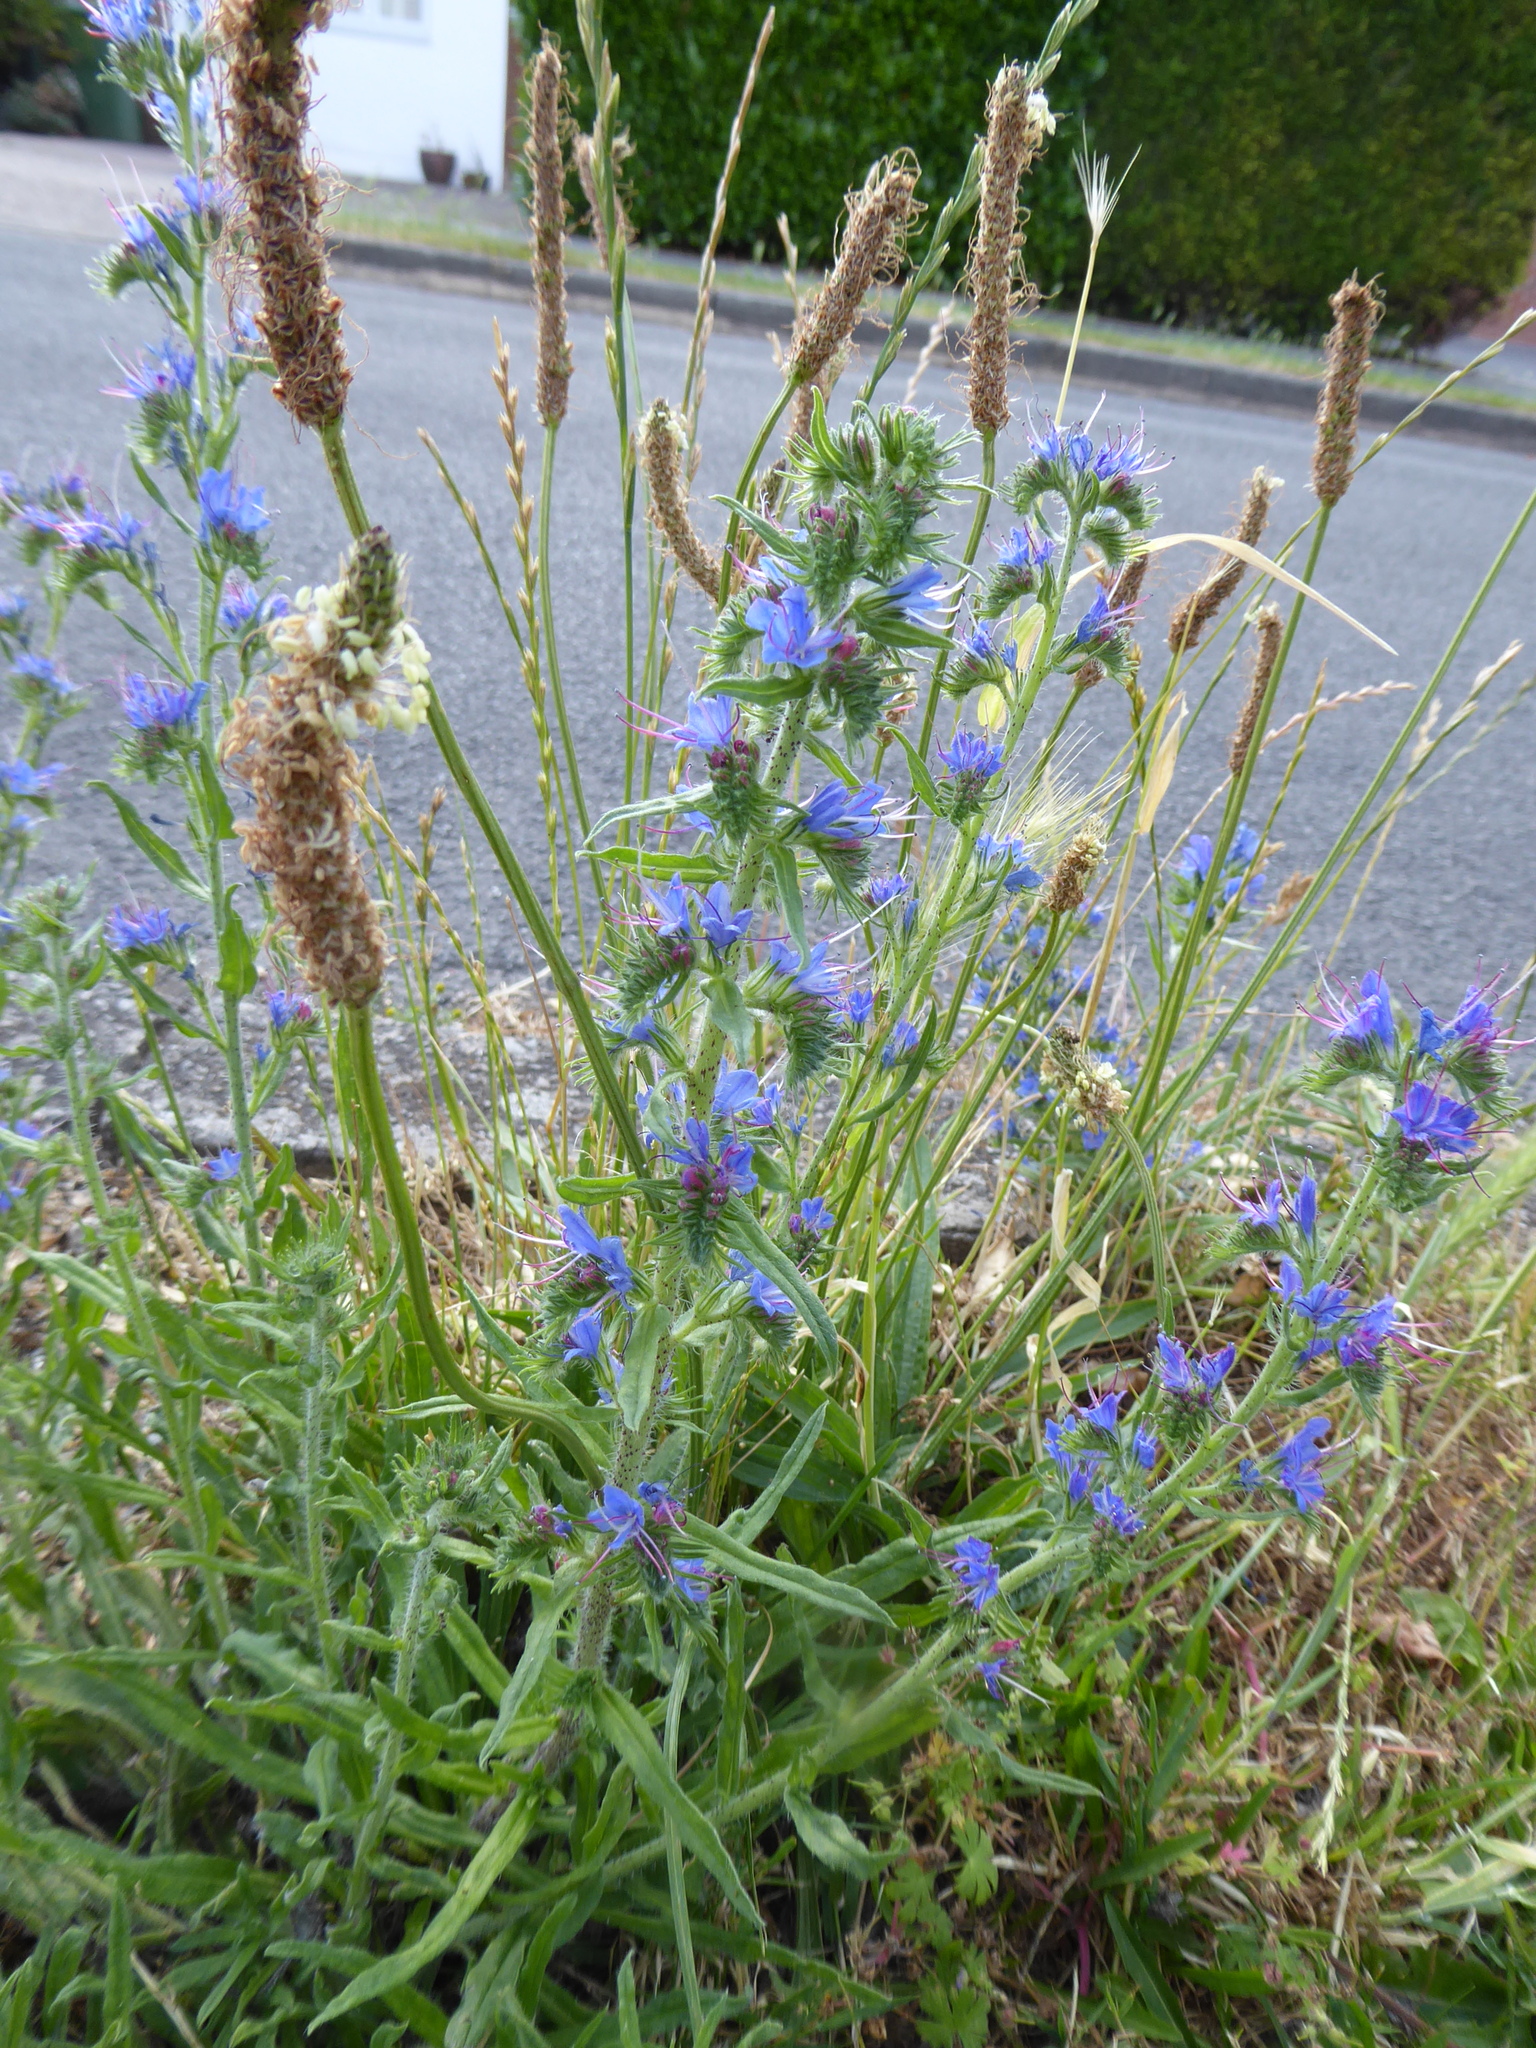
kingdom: Plantae
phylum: Tracheophyta
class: Magnoliopsida
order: Boraginales
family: Boraginaceae
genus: Echium
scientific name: Echium vulgare
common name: Common viper's bugloss
